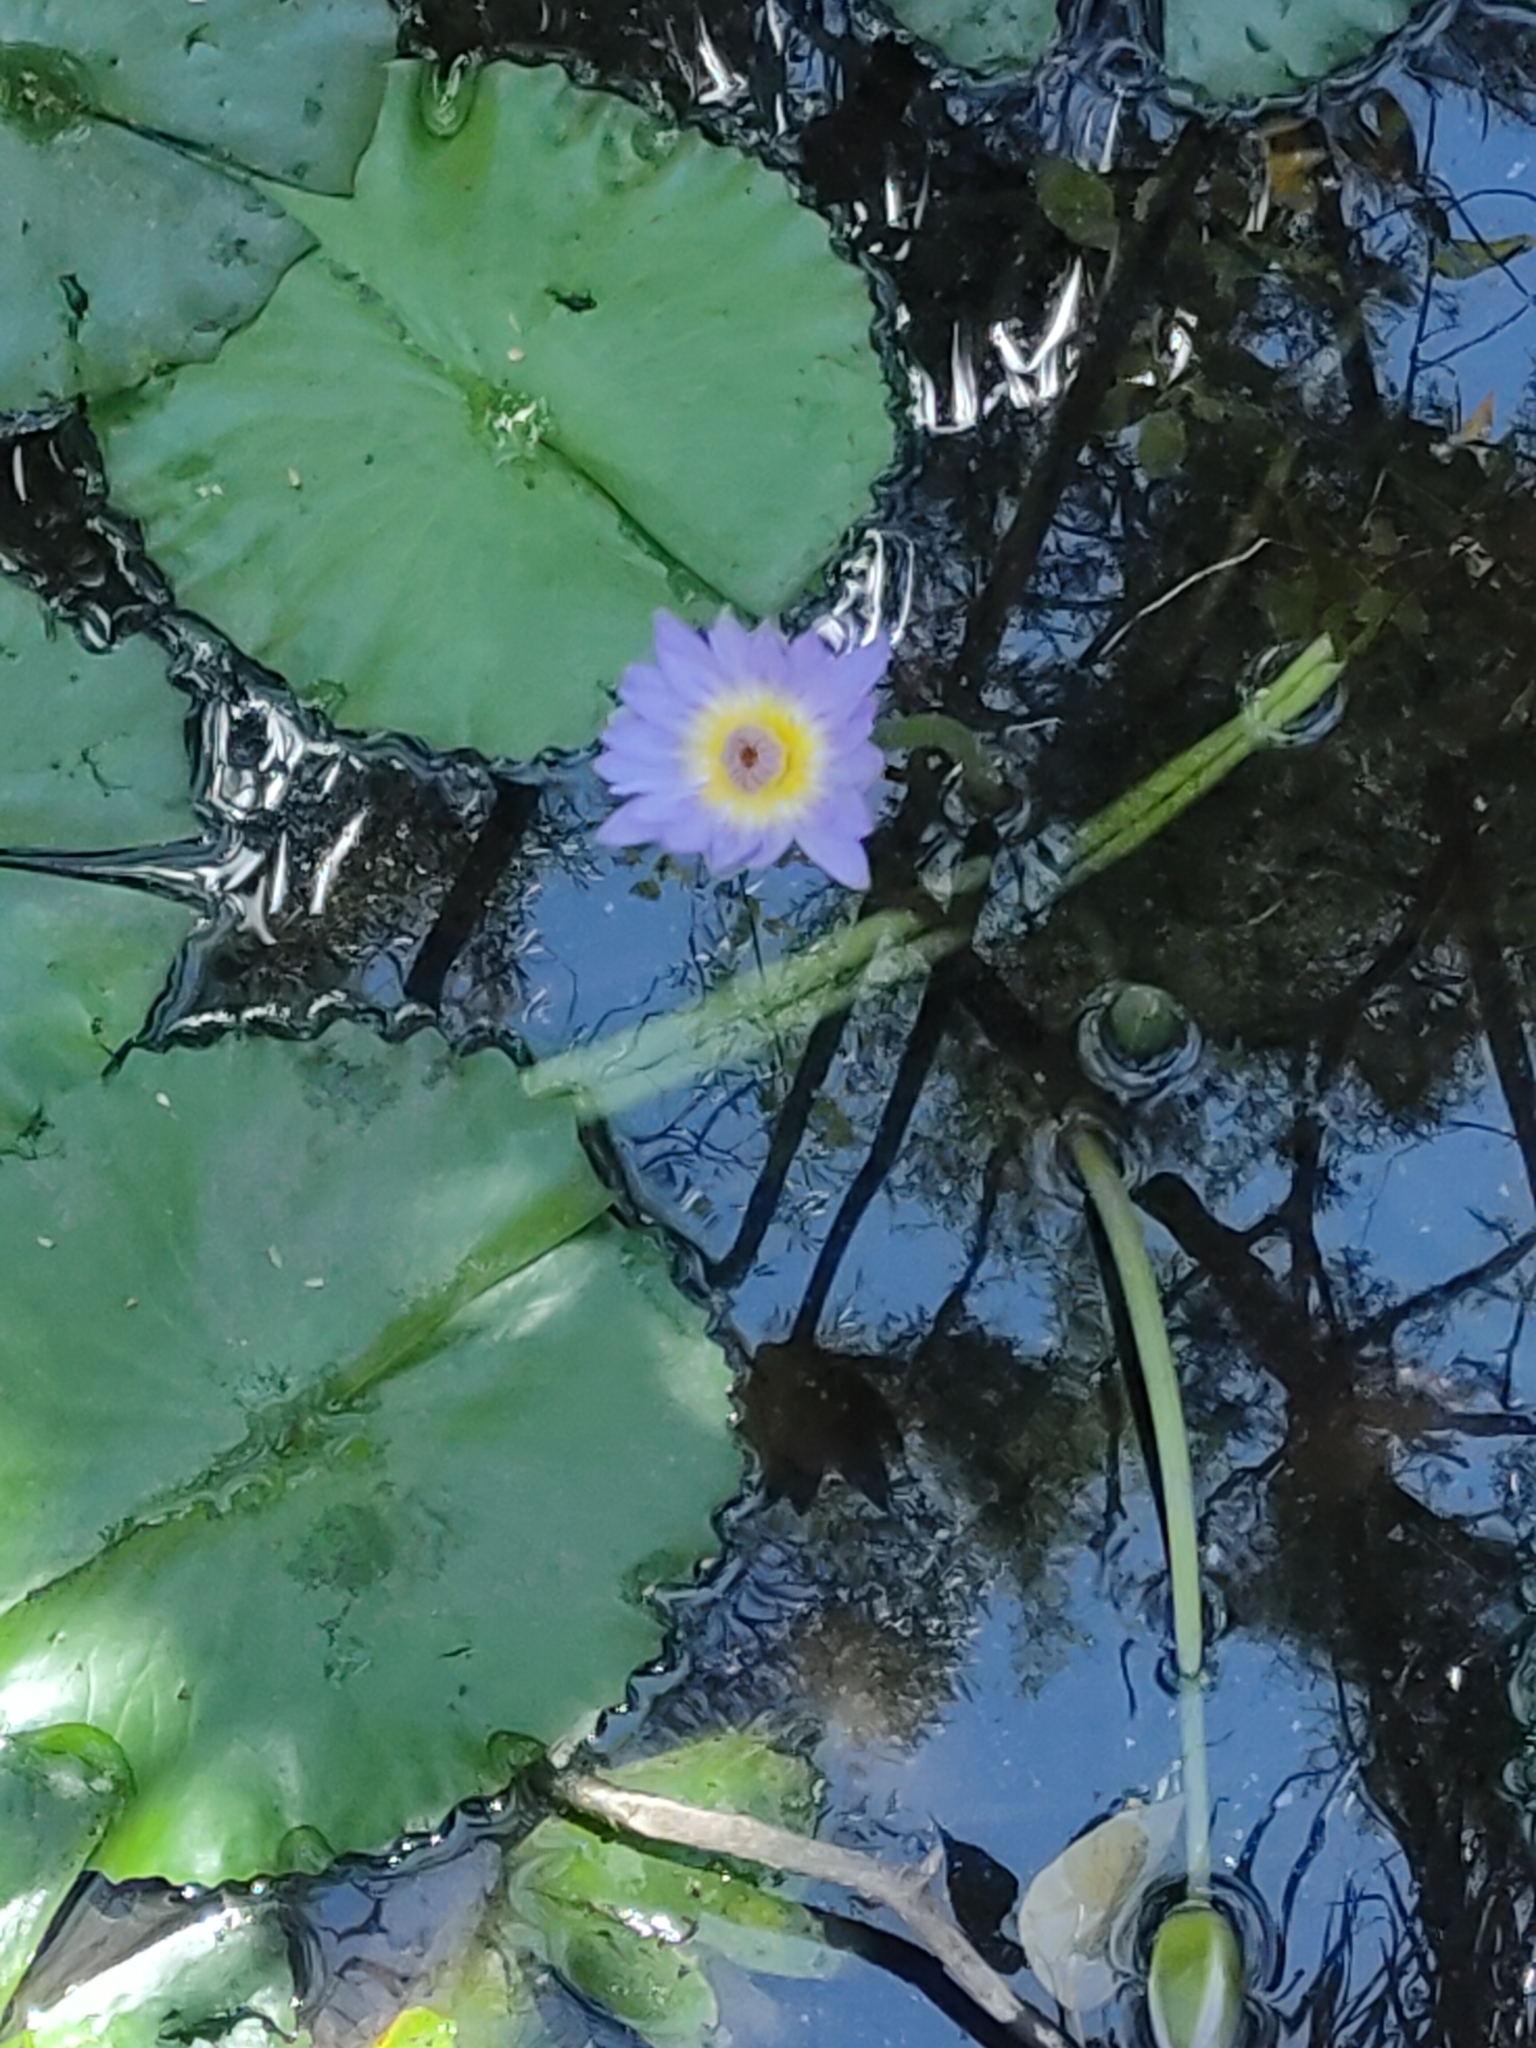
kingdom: Plantae
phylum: Tracheophyta
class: Magnoliopsida
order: Nymphaeales
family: Nymphaeaceae
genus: Nymphaea
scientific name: Nymphaea nouchali
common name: Blue lotus
